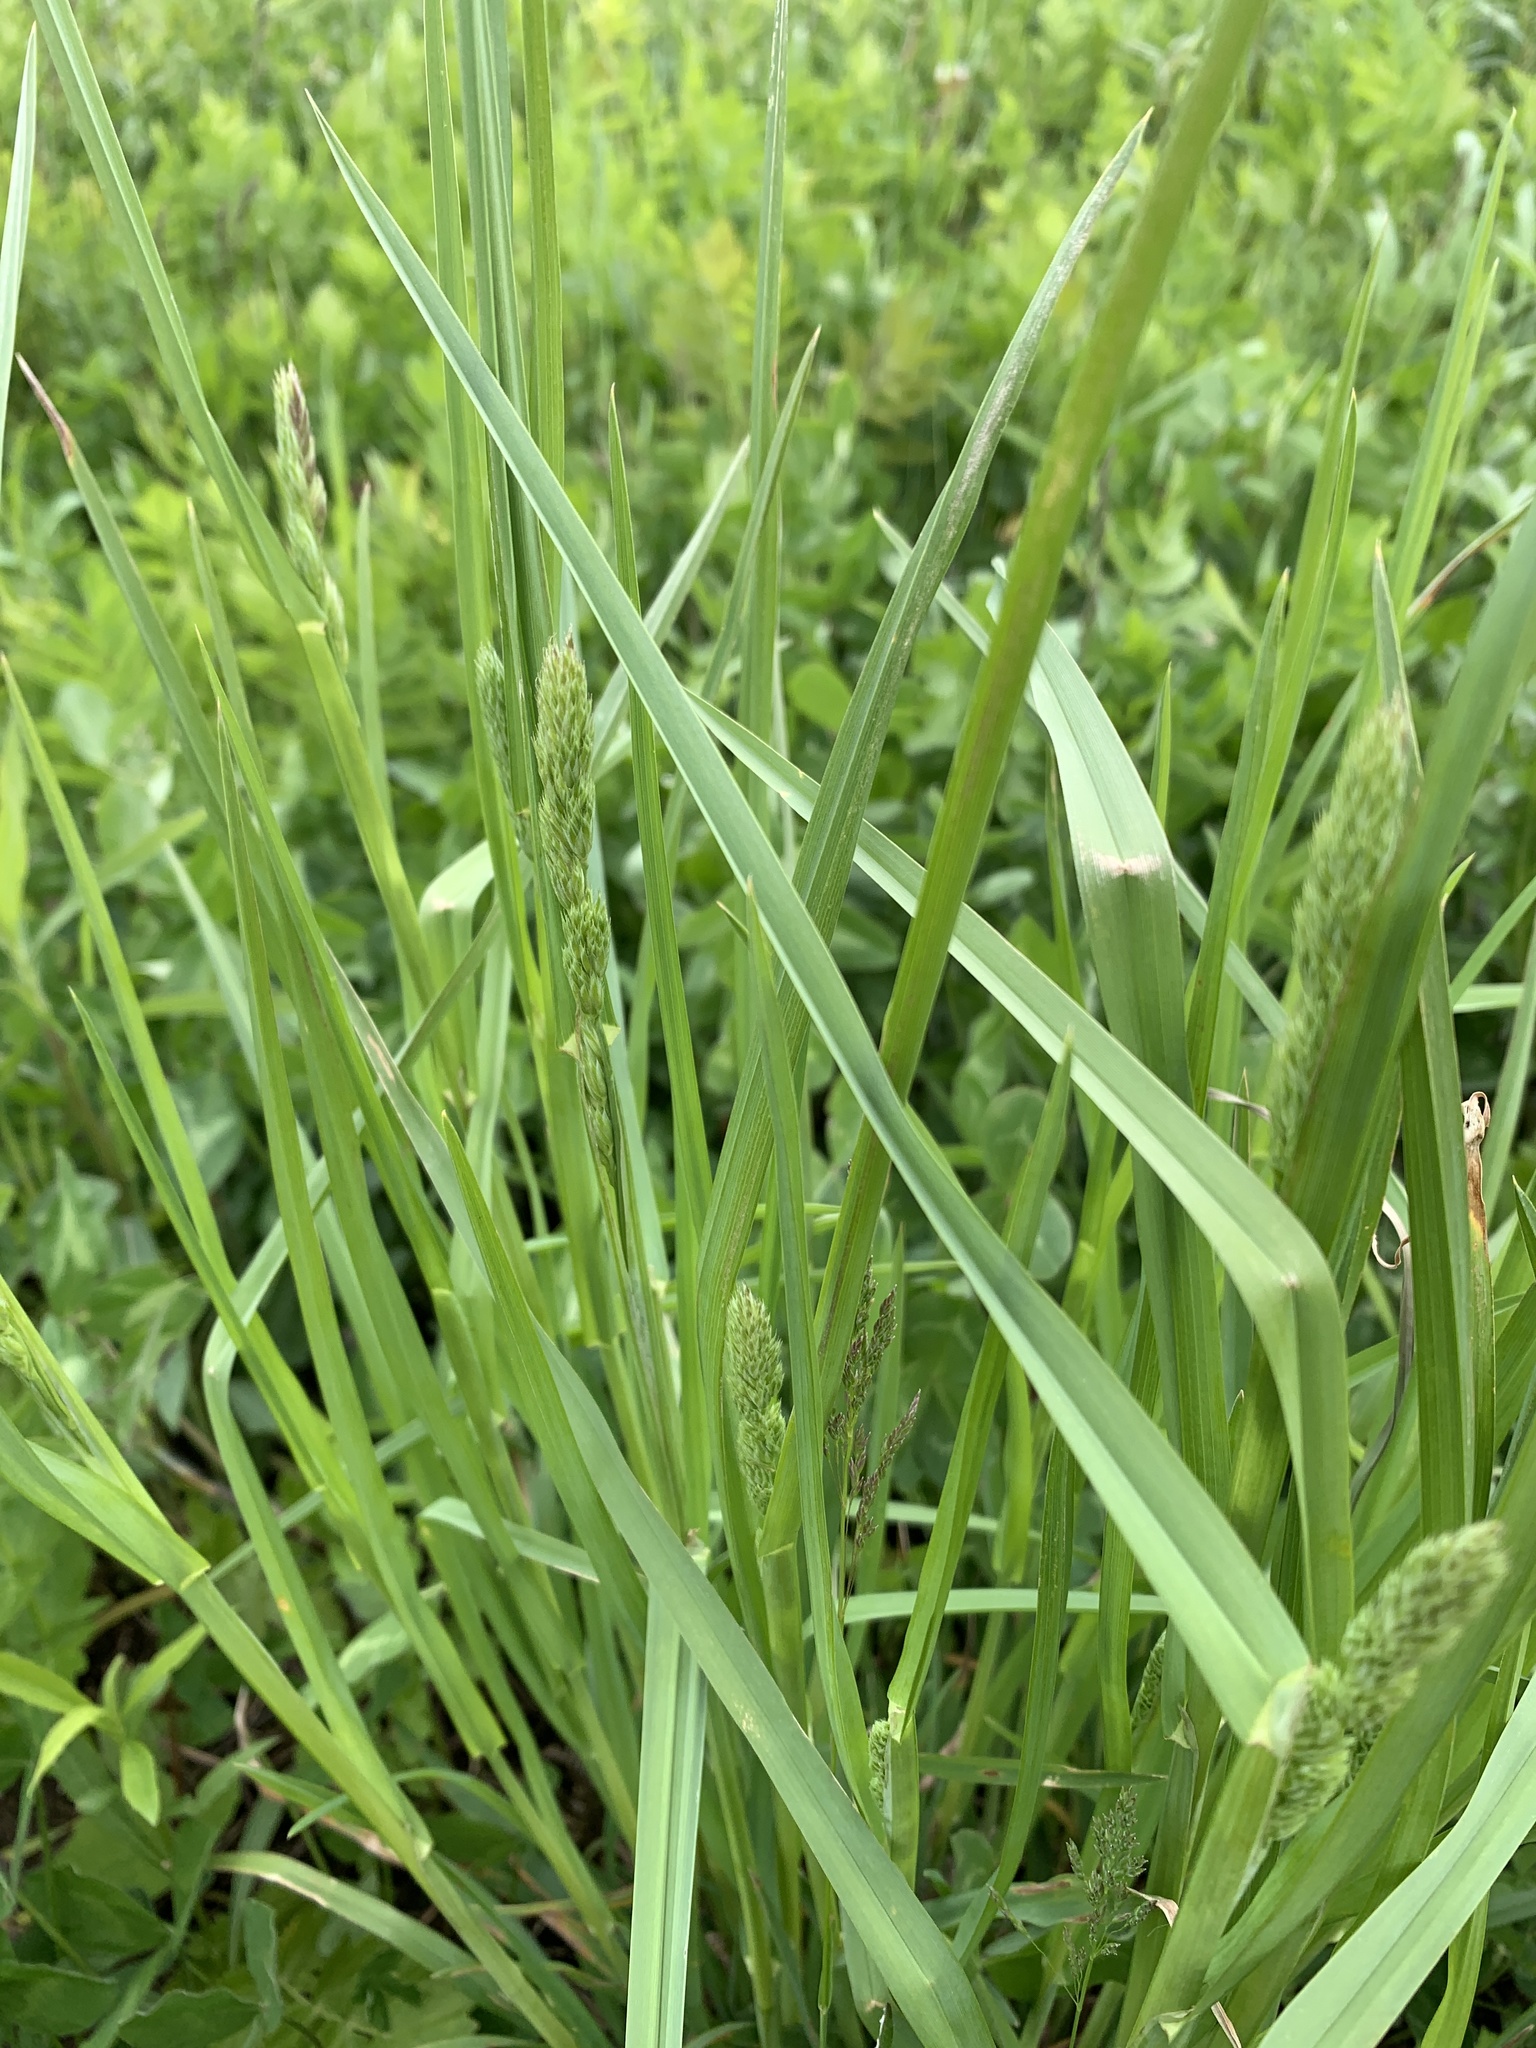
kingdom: Plantae
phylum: Tracheophyta
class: Liliopsida
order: Poales
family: Poaceae
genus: Dactylis
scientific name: Dactylis glomerata
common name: Orchardgrass
